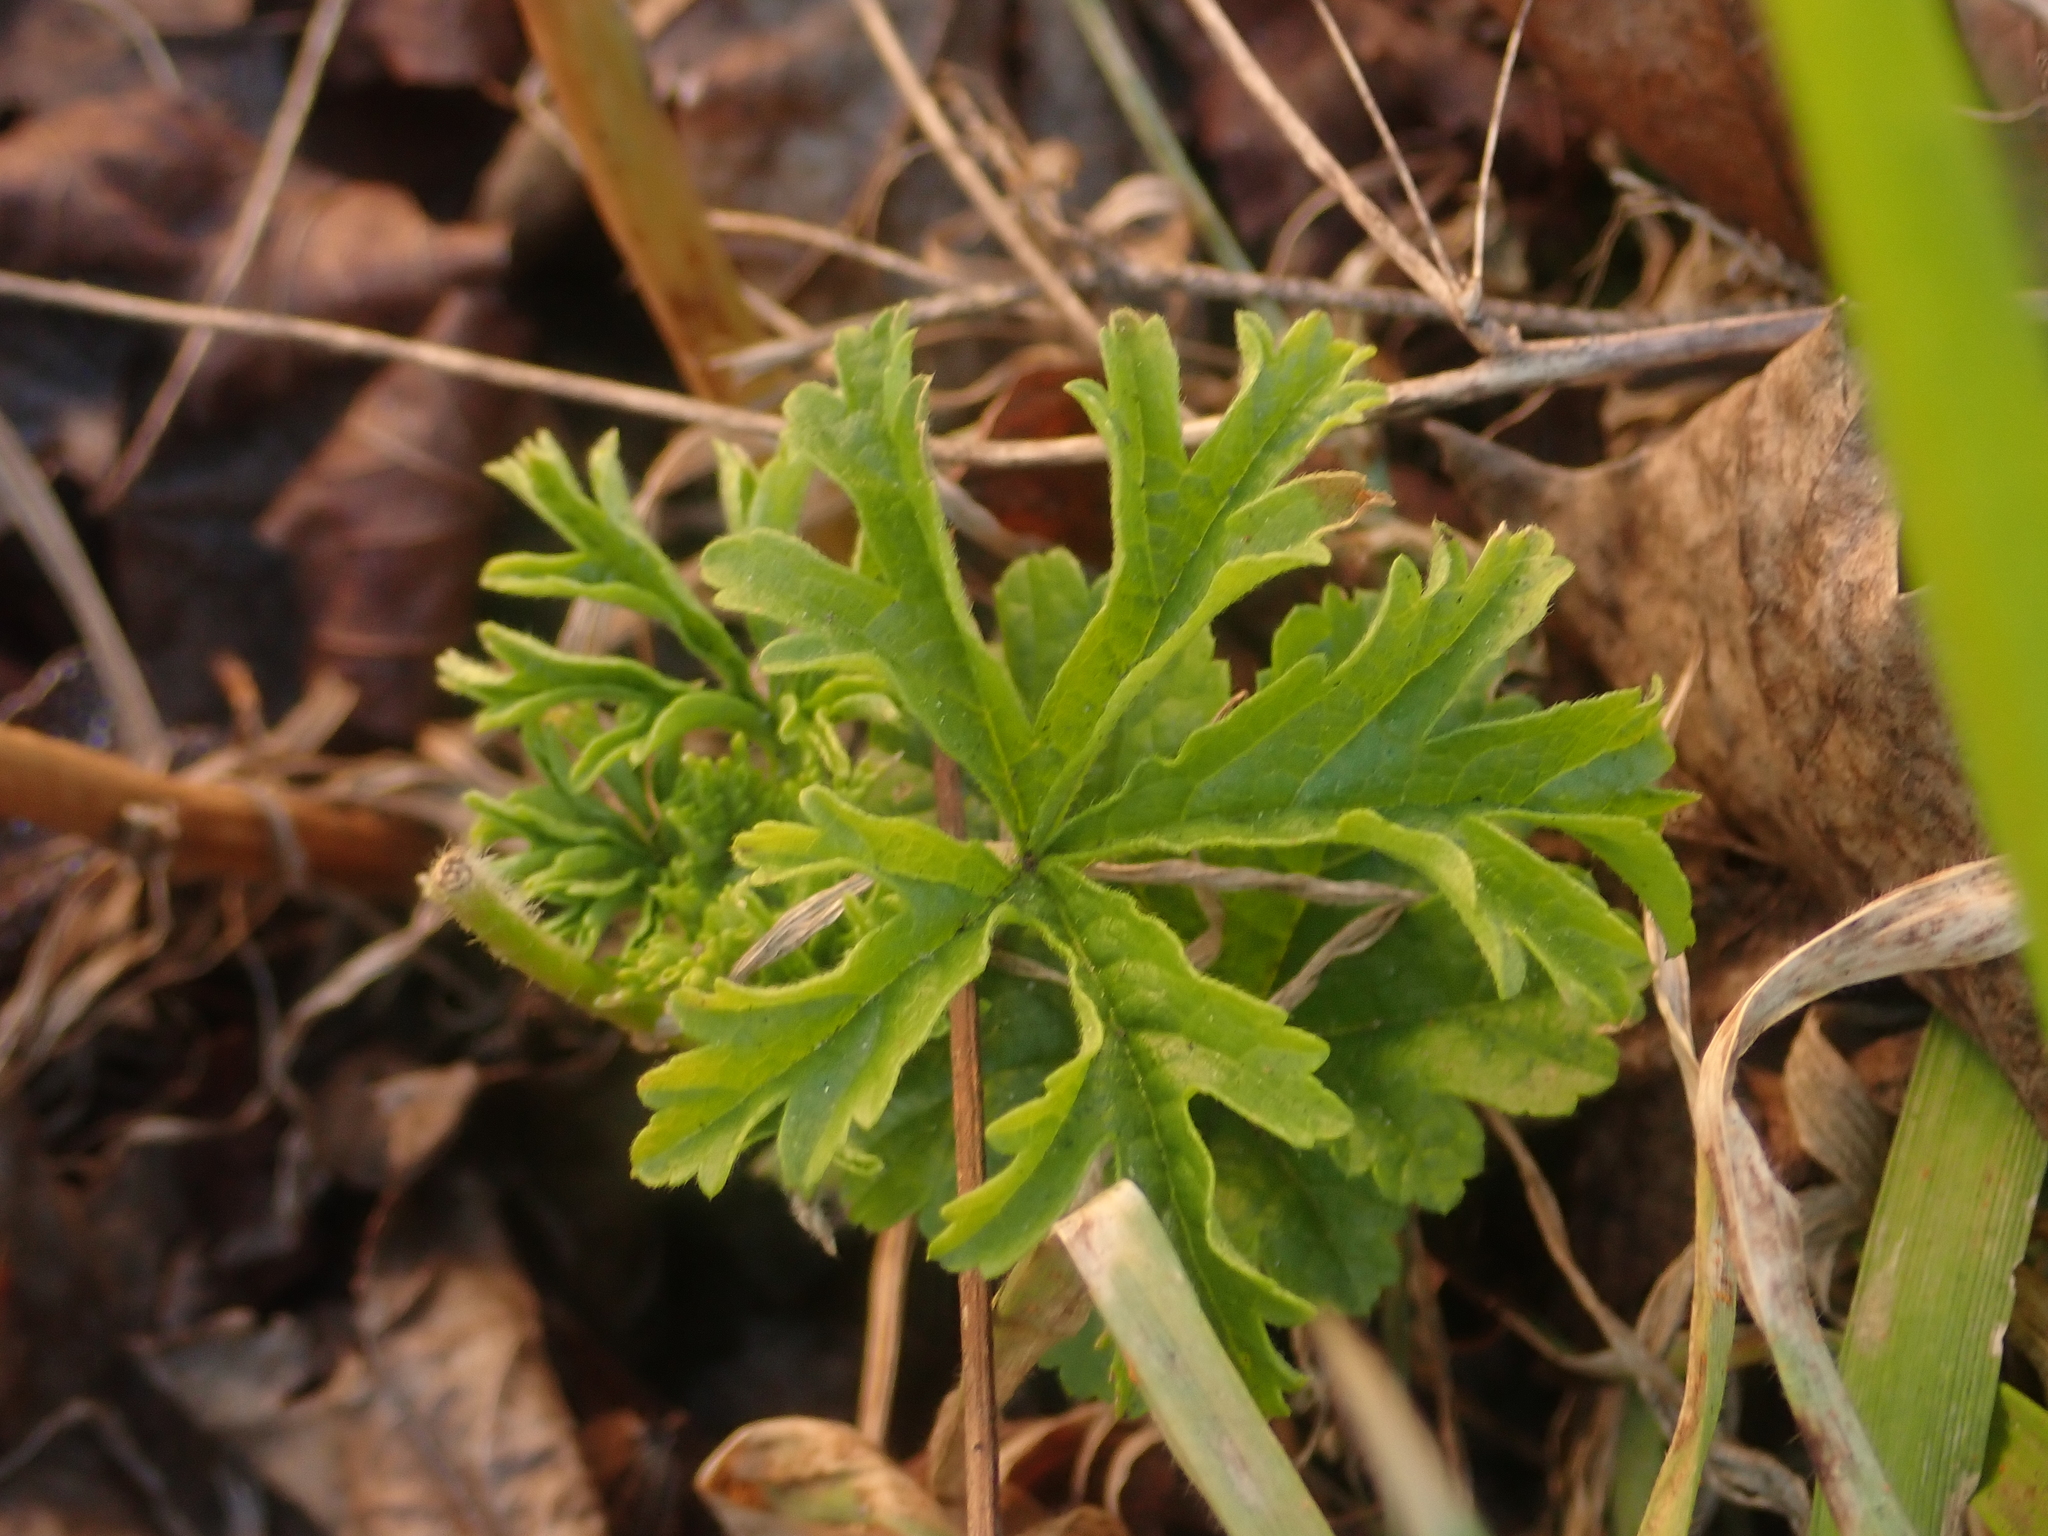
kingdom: Plantae
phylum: Tracheophyta
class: Magnoliopsida
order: Malvales
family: Malvaceae
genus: Malva
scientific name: Malva moschata
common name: Musk mallow
